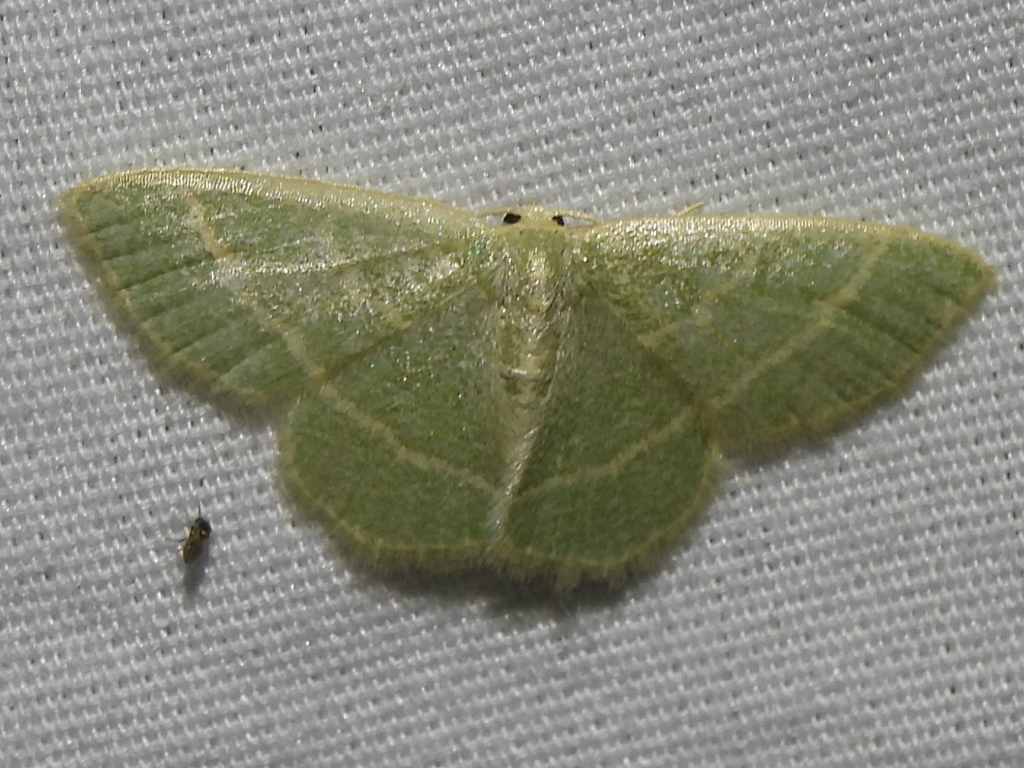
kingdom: Animalia
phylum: Arthropoda
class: Insecta
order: Lepidoptera
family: Geometridae
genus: Chlorochlamys
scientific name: Chlorochlamys chloroleucaria
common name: Blackberry looper
